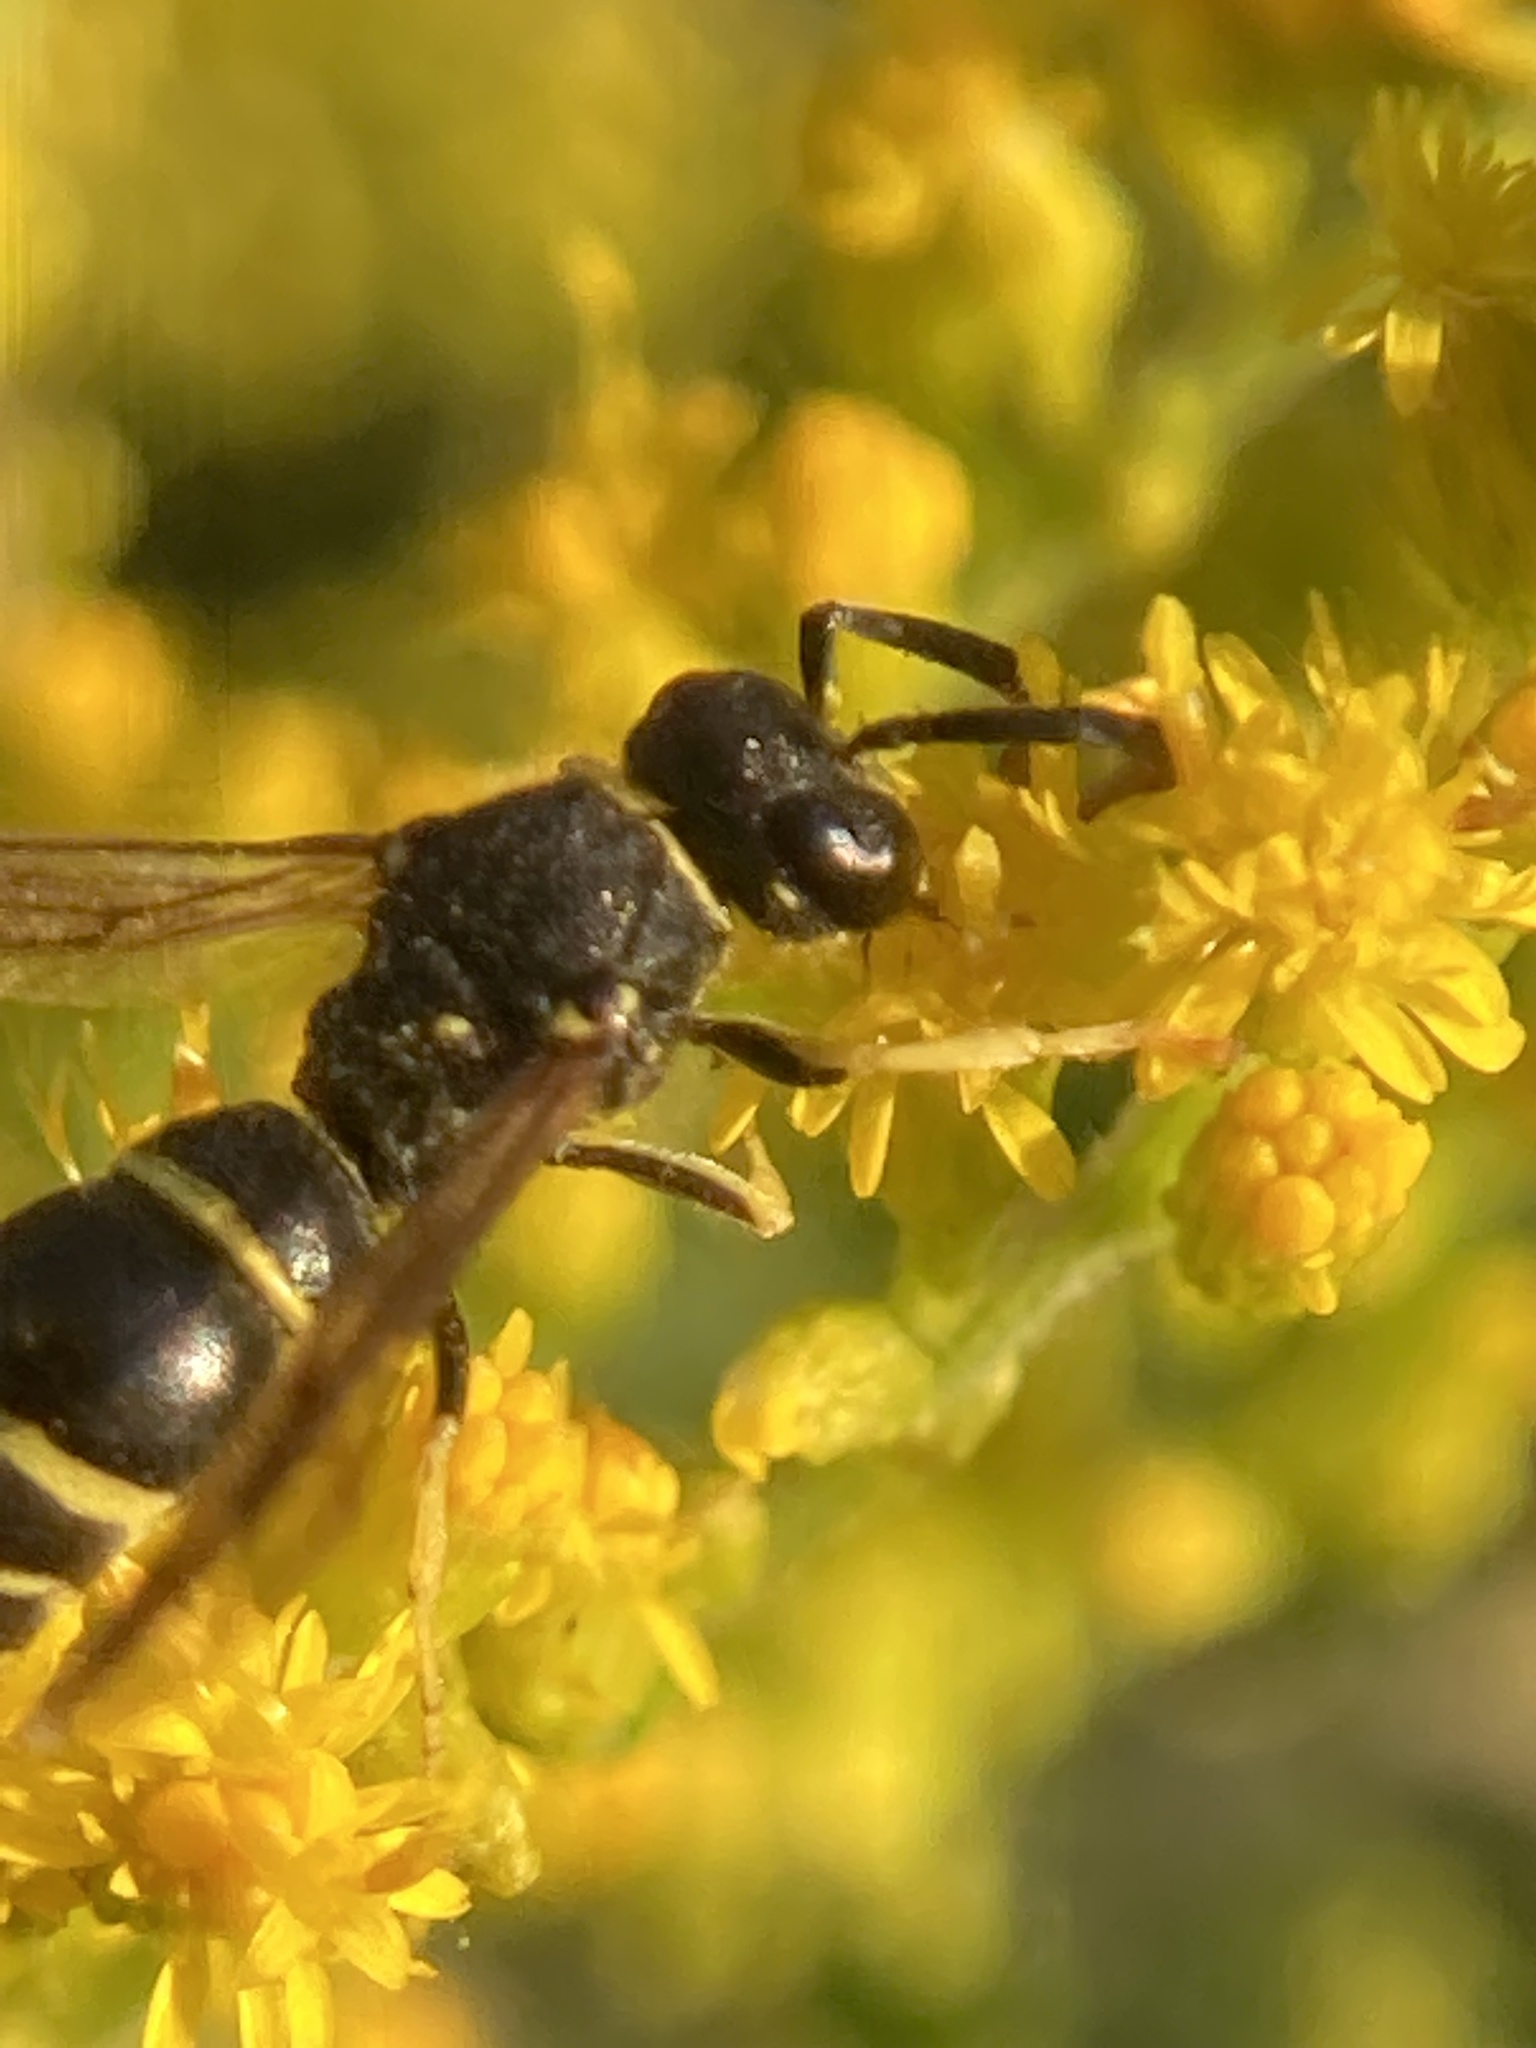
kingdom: Animalia
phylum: Arthropoda
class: Insecta
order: Hymenoptera
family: Vespidae
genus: Ancistrocerus
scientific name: Ancistrocerus adiabatus
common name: Bramble mason wasp
